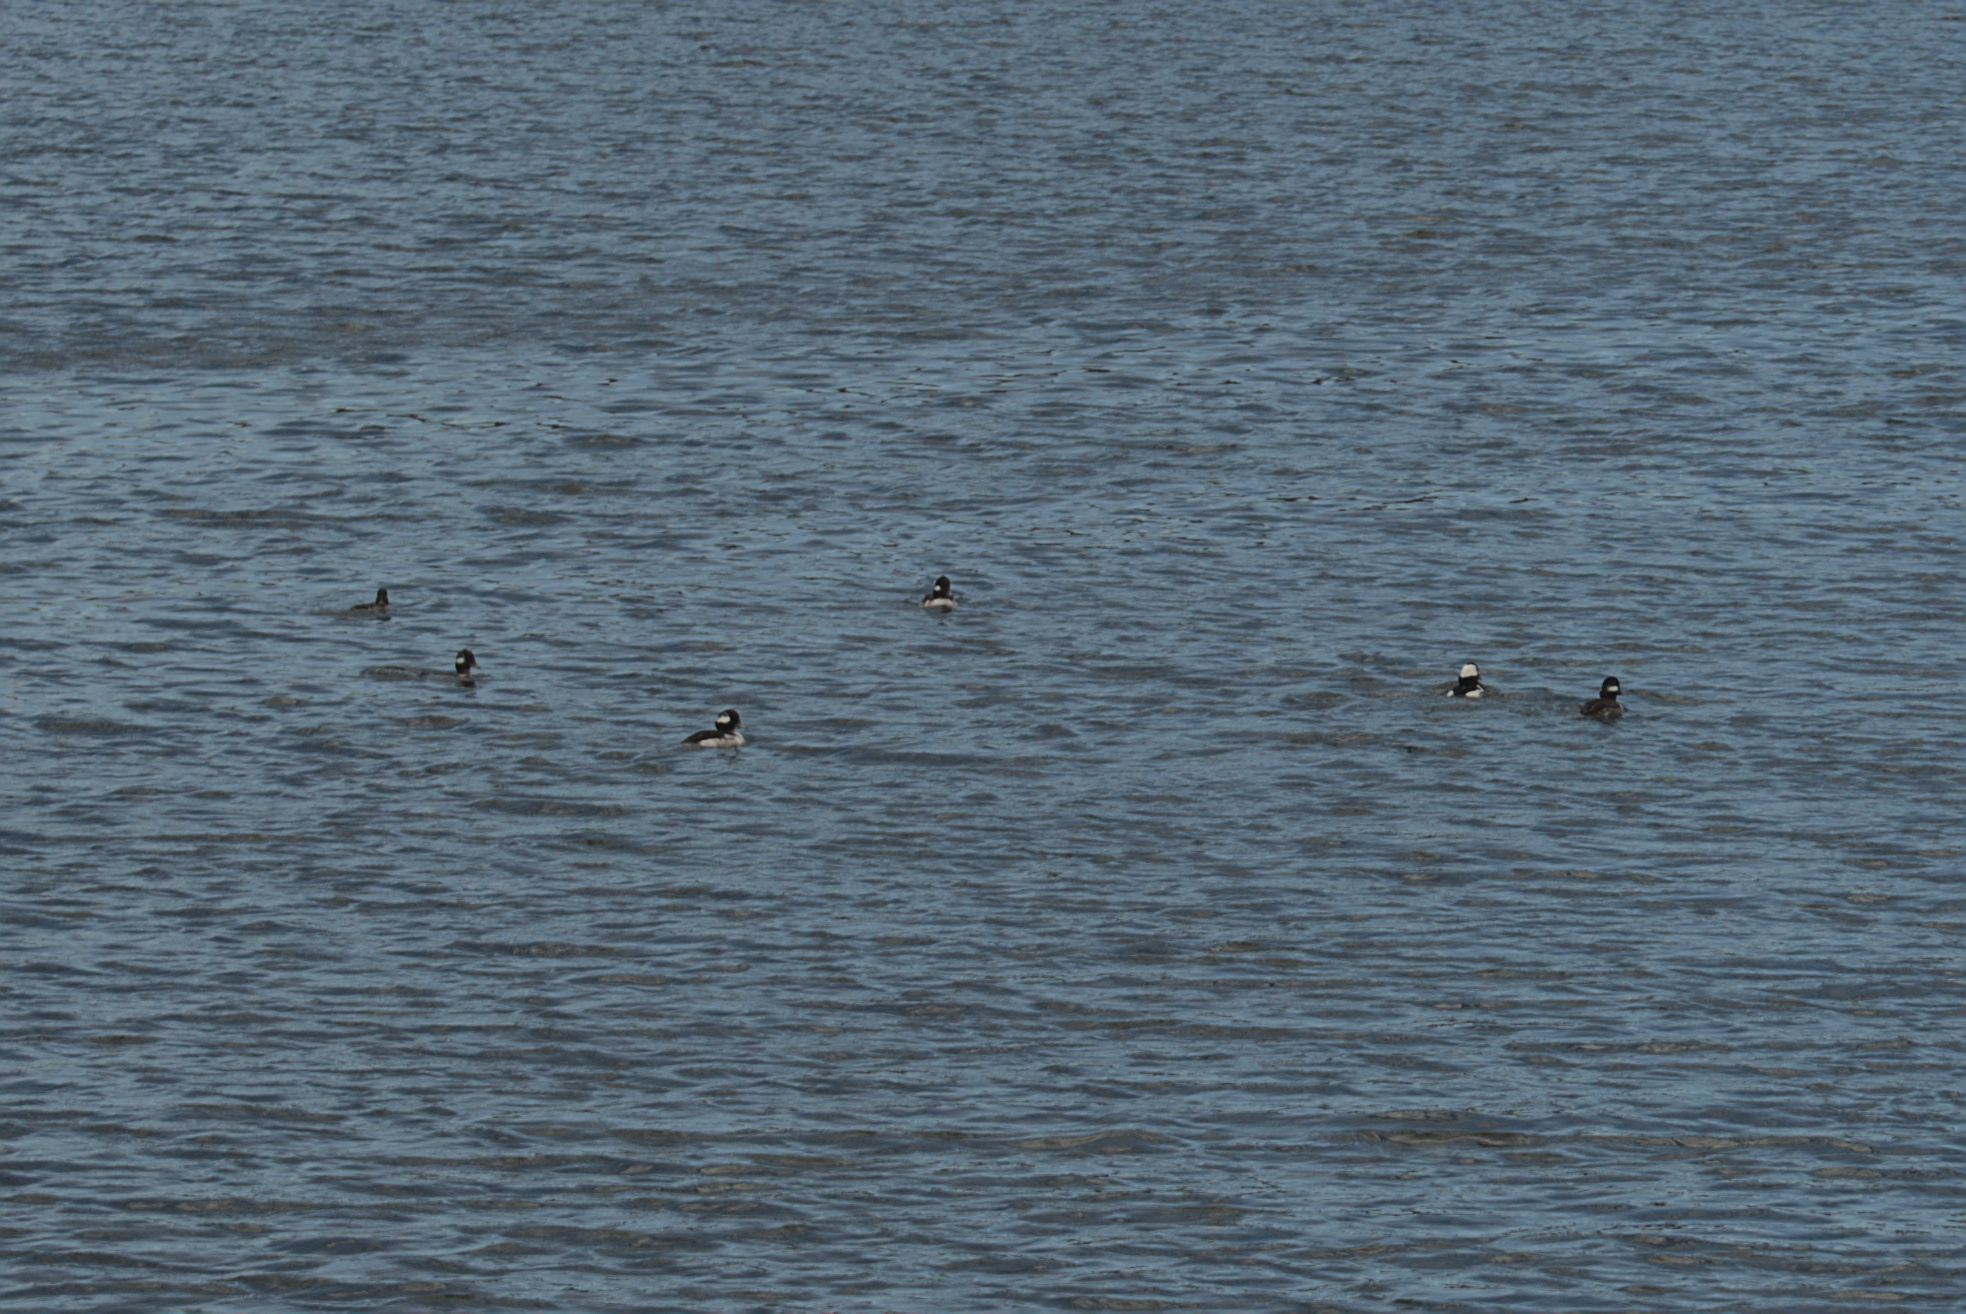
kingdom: Animalia
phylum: Chordata
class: Aves
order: Anseriformes
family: Anatidae
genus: Bucephala
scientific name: Bucephala albeola
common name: Bufflehead
